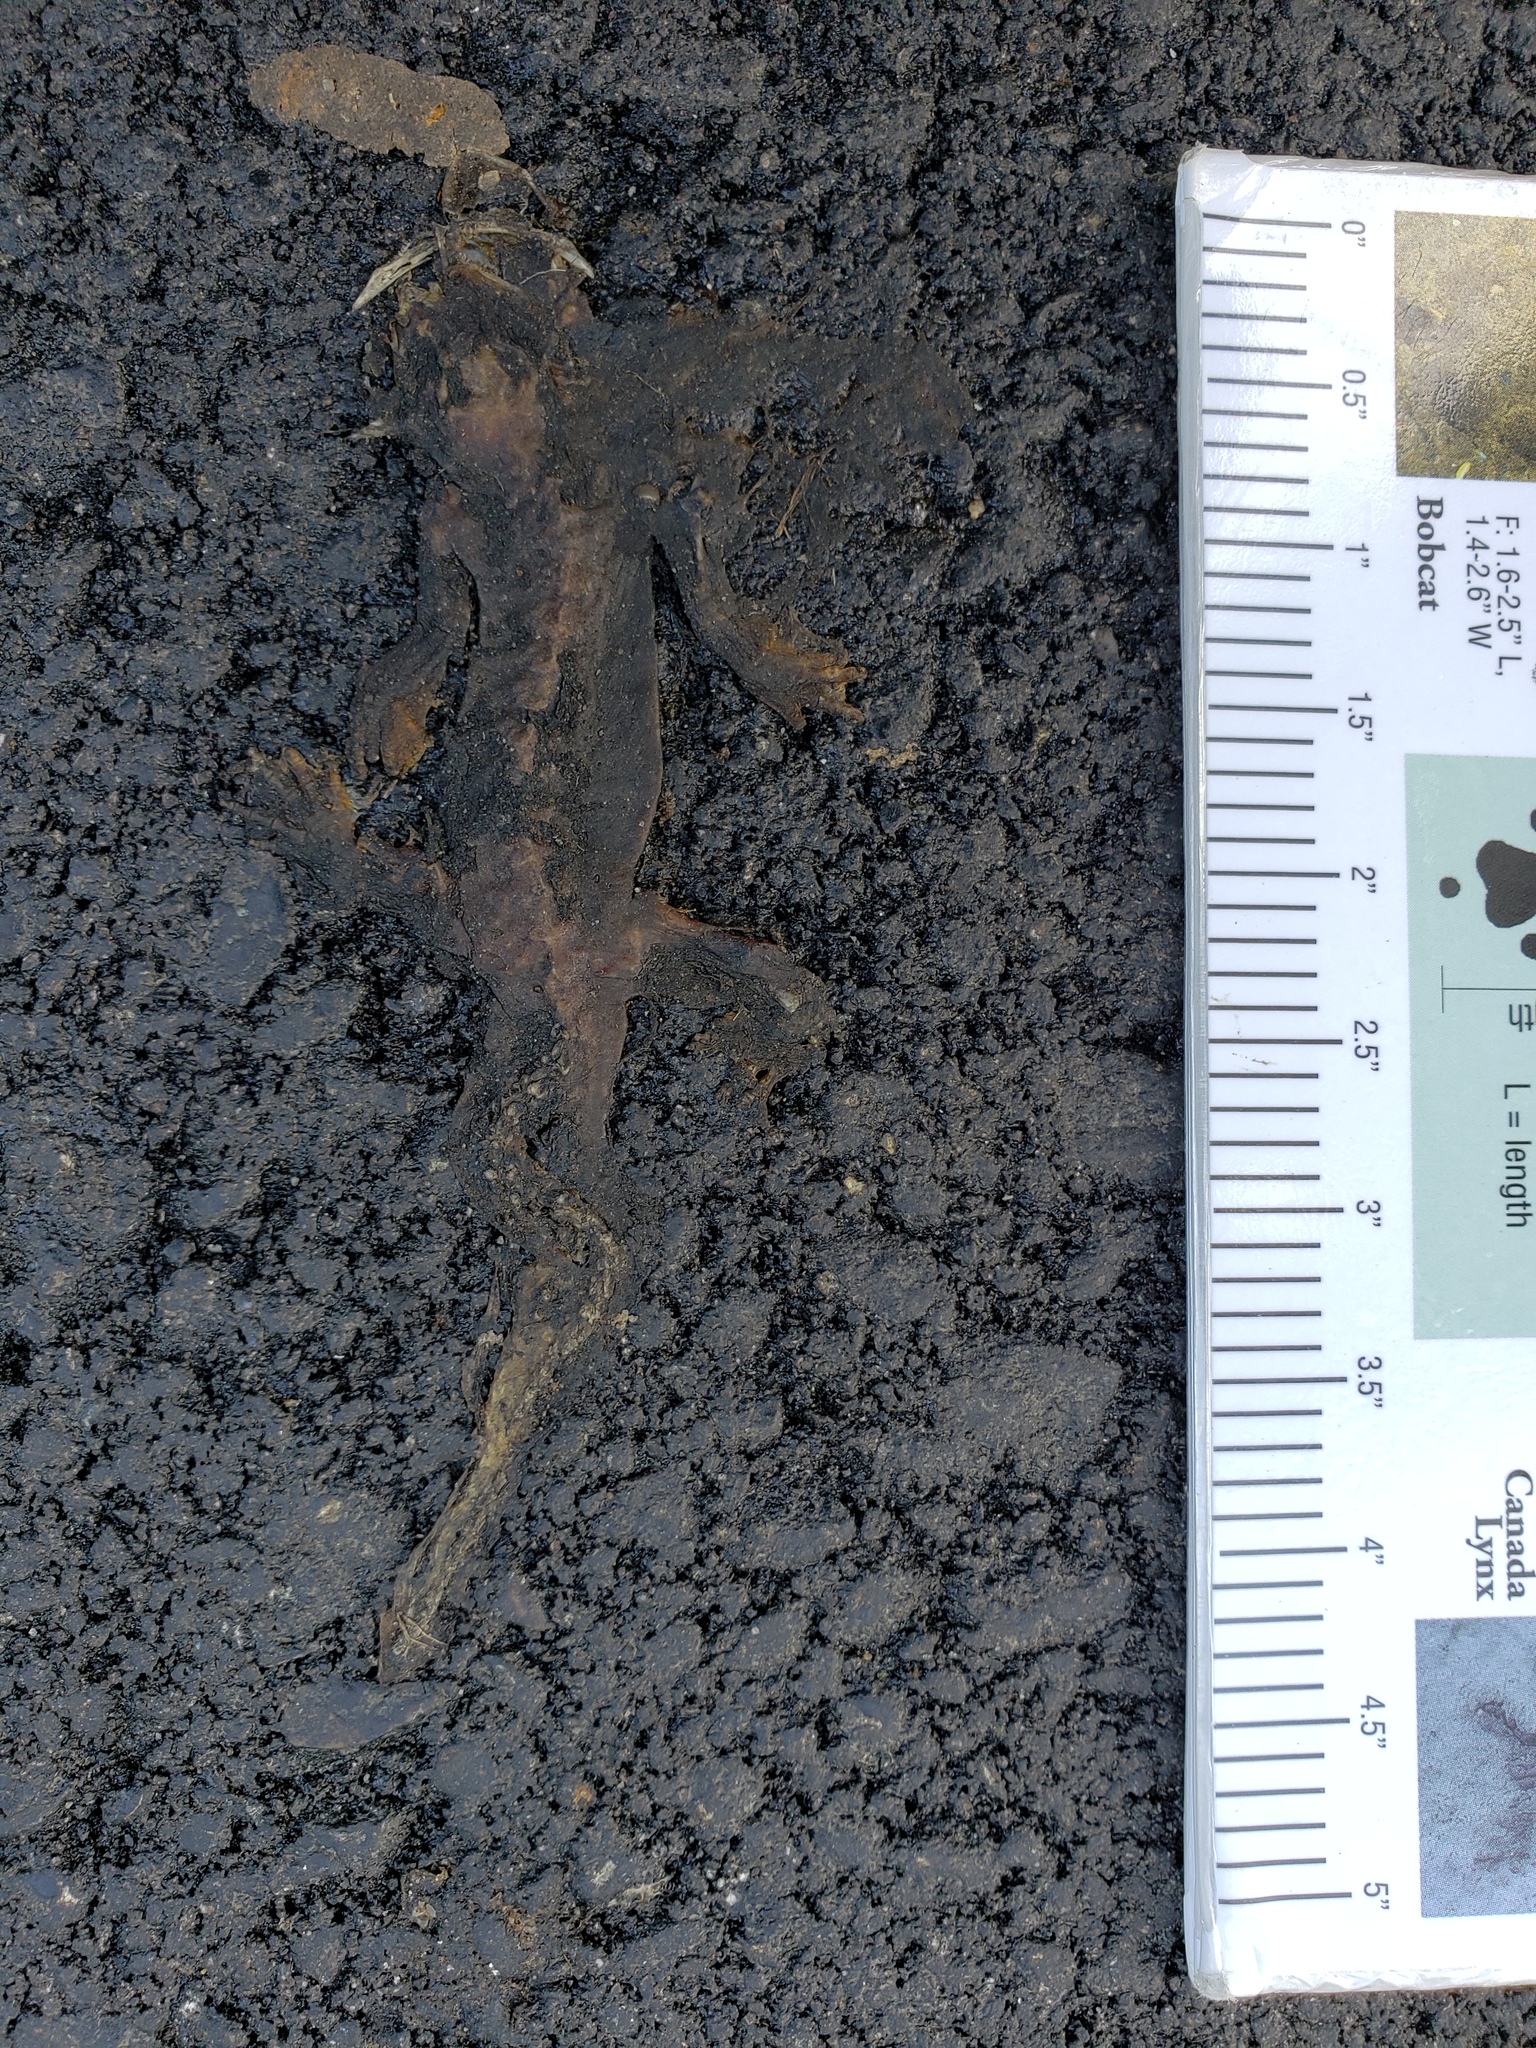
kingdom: Animalia
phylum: Chordata
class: Amphibia
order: Caudata
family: Salamandridae
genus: Taricha
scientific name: Taricha
